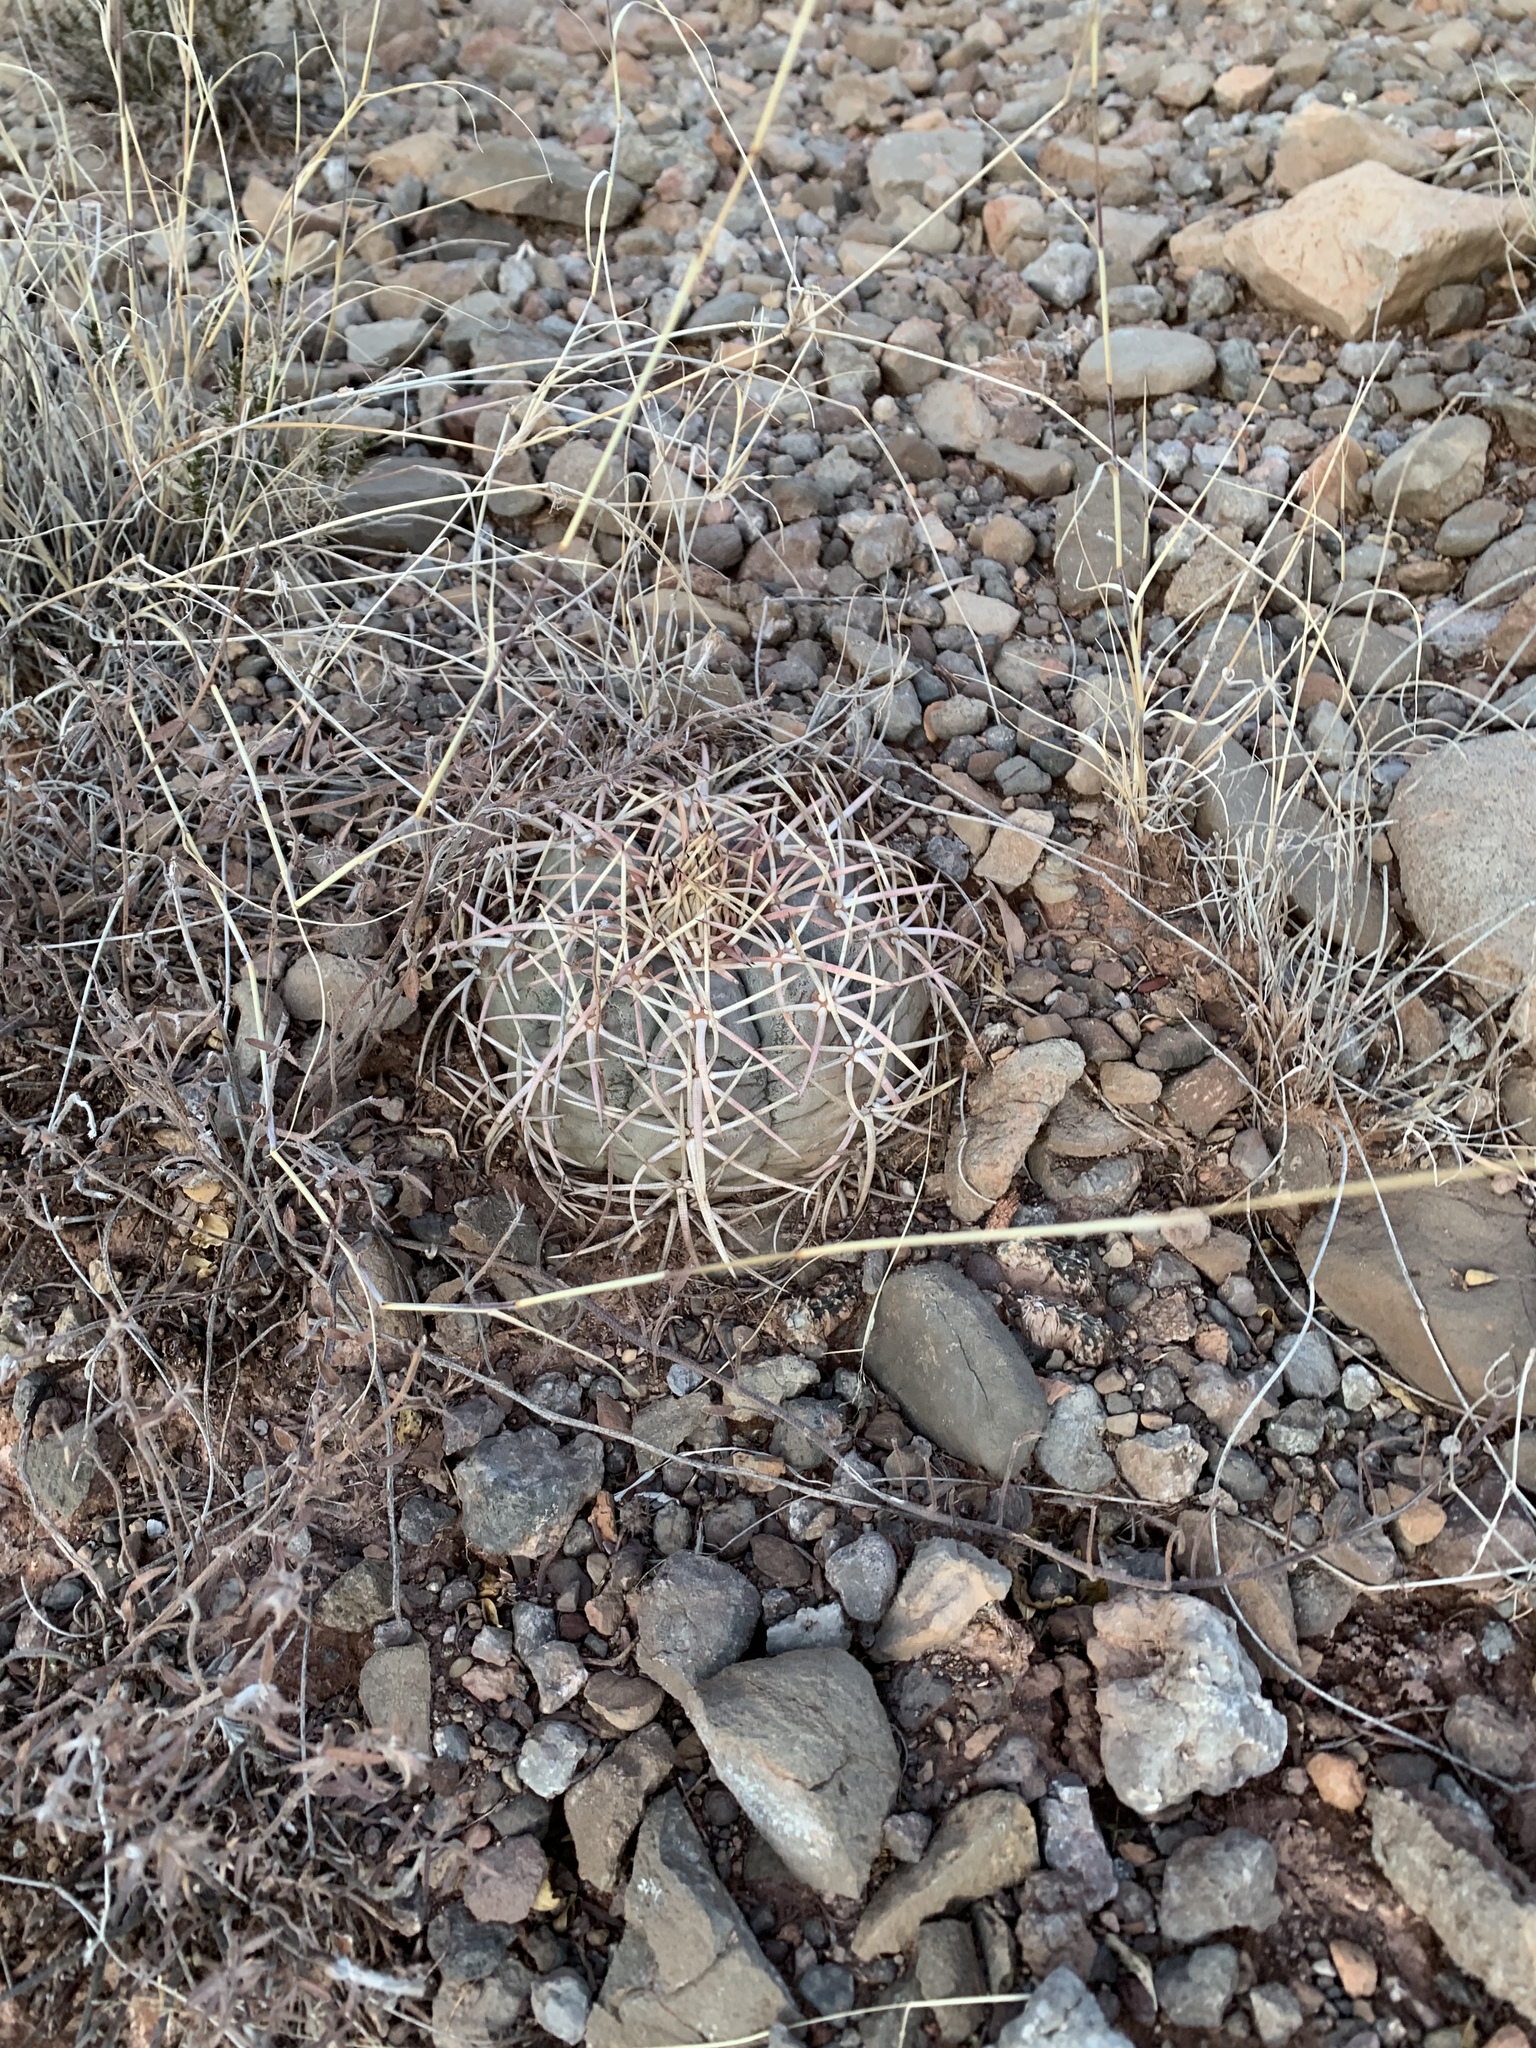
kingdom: Plantae
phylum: Tracheophyta
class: Magnoliopsida
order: Caryophyllales
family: Cactaceae
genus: Echinocactus
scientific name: Echinocactus horizonthalonius
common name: Devilshead
